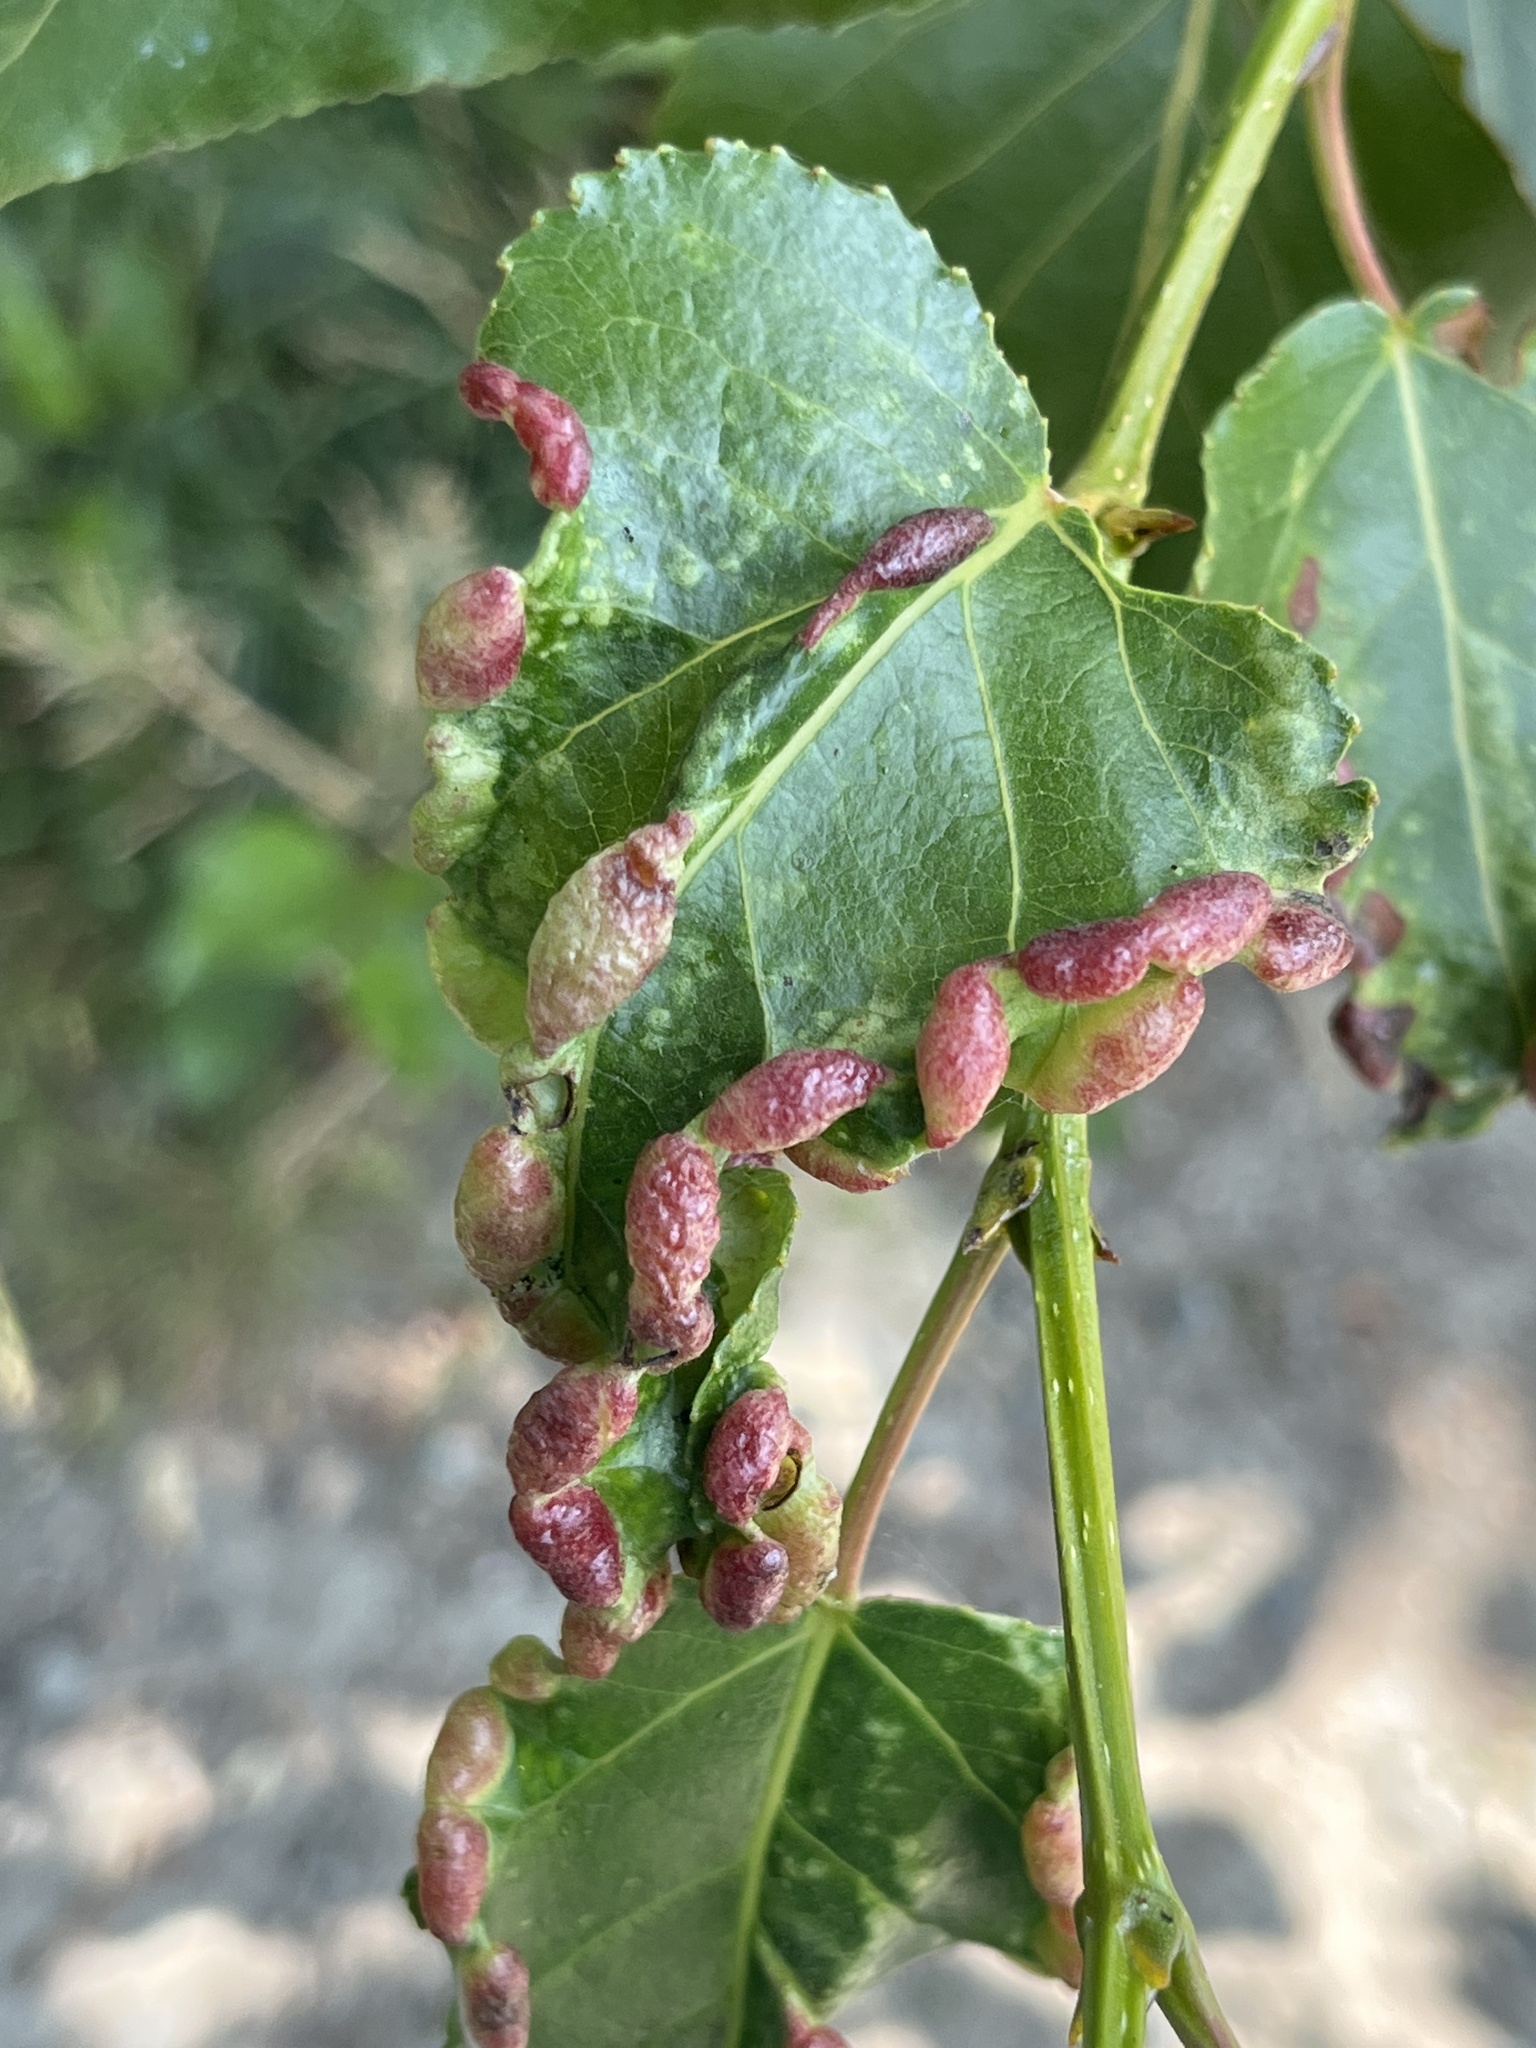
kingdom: Animalia
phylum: Arthropoda
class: Insecta
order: Hemiptera
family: Aphididae
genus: Thecabius
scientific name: Thecabius populimonilis
